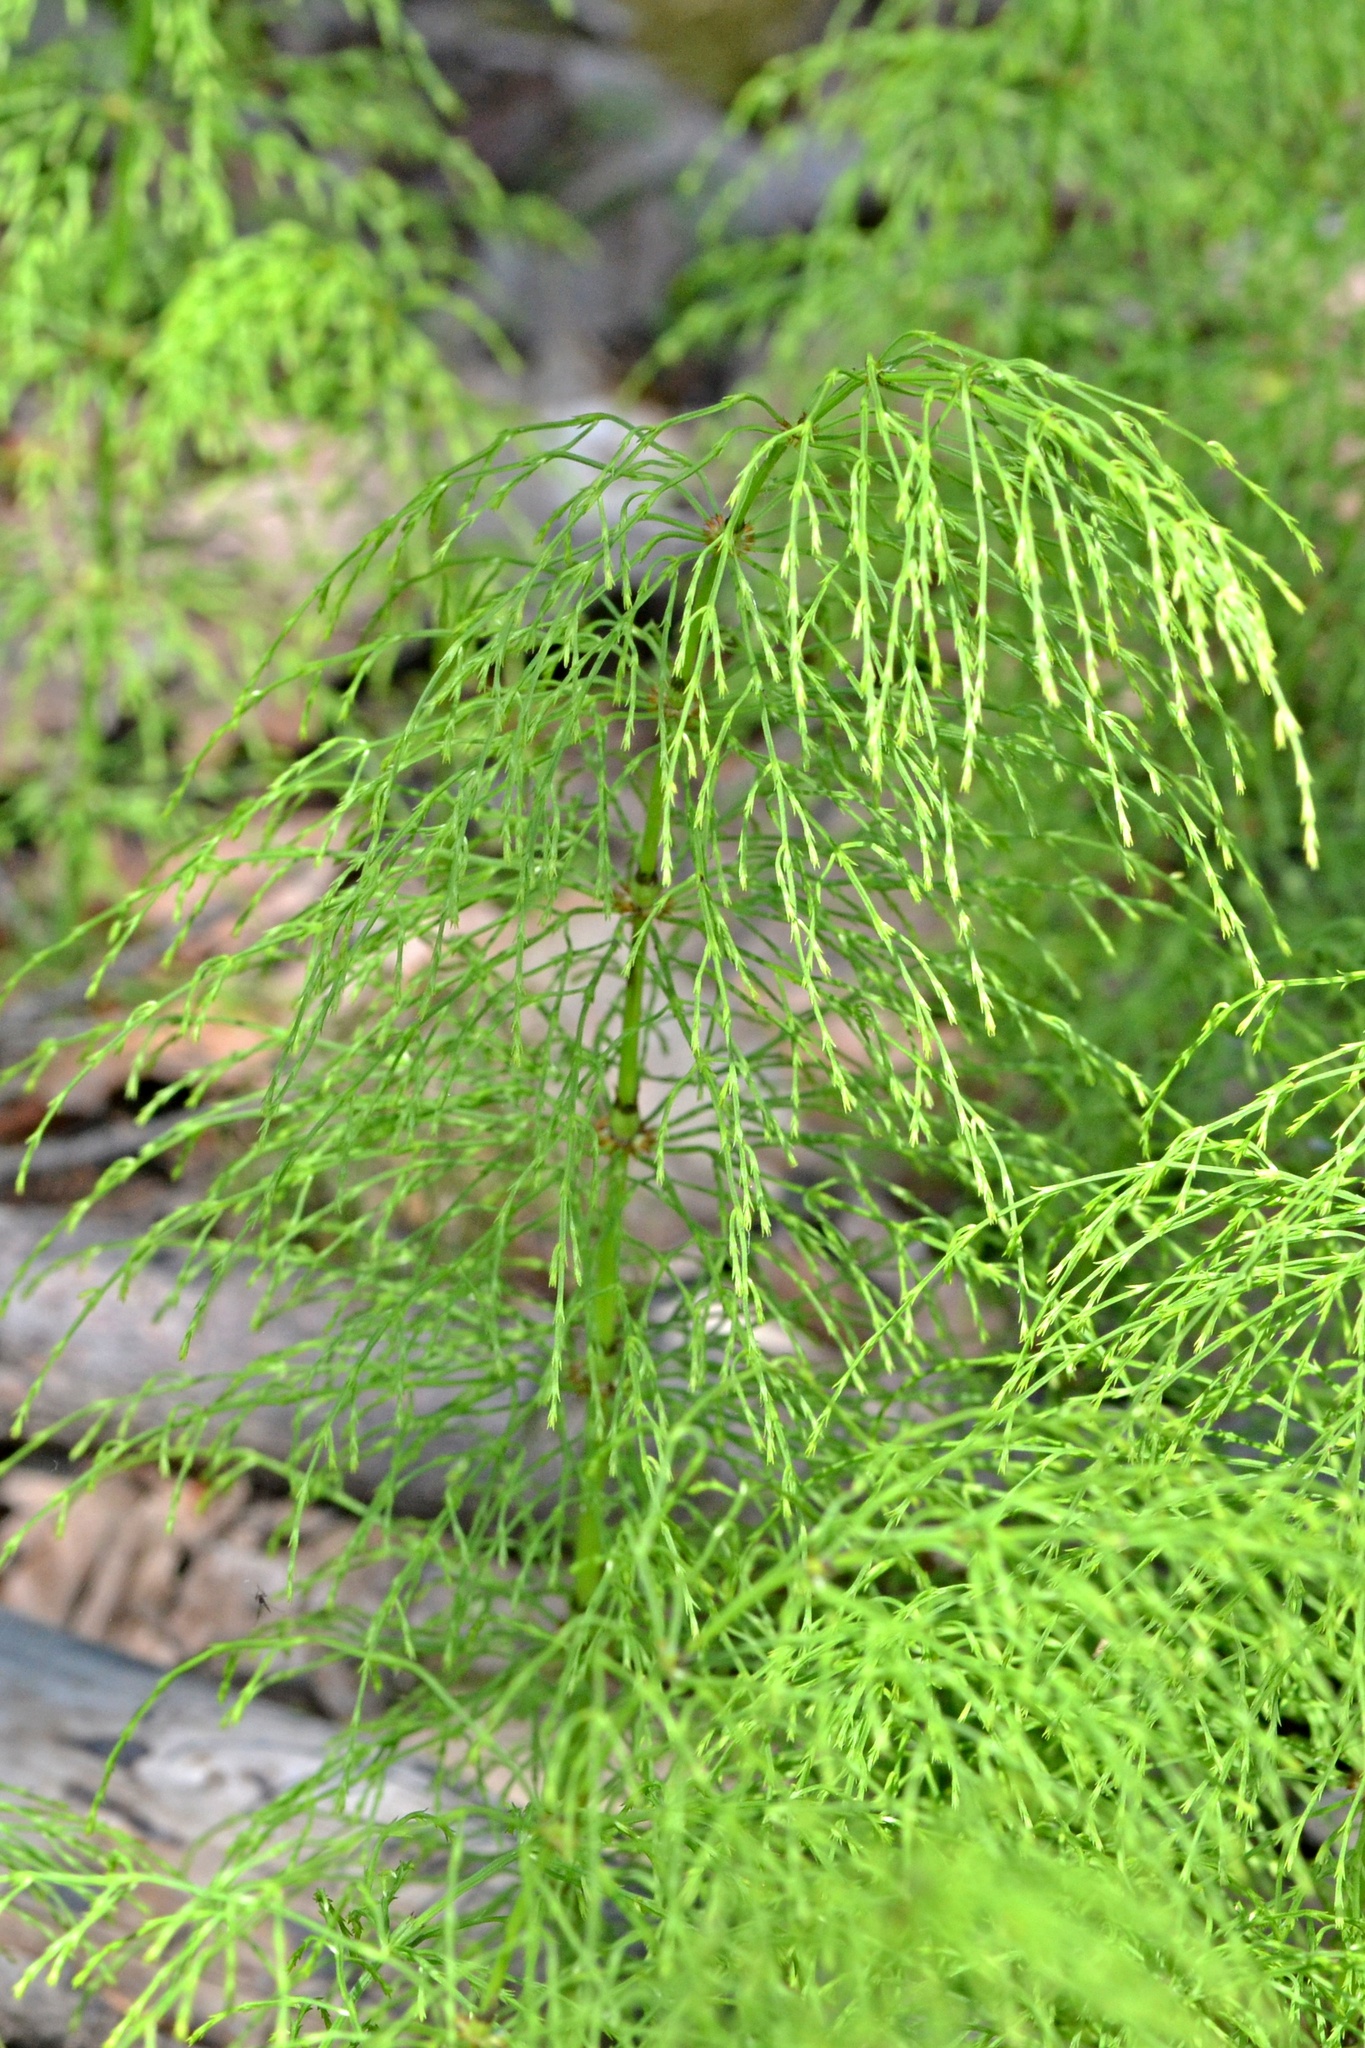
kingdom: Plantae
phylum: Tracheophyta
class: Polypodiopsida
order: Equisetales
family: Equisetaceae
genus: Equisetum
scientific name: Equisetum sylvaticum
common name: Wood horsetail
